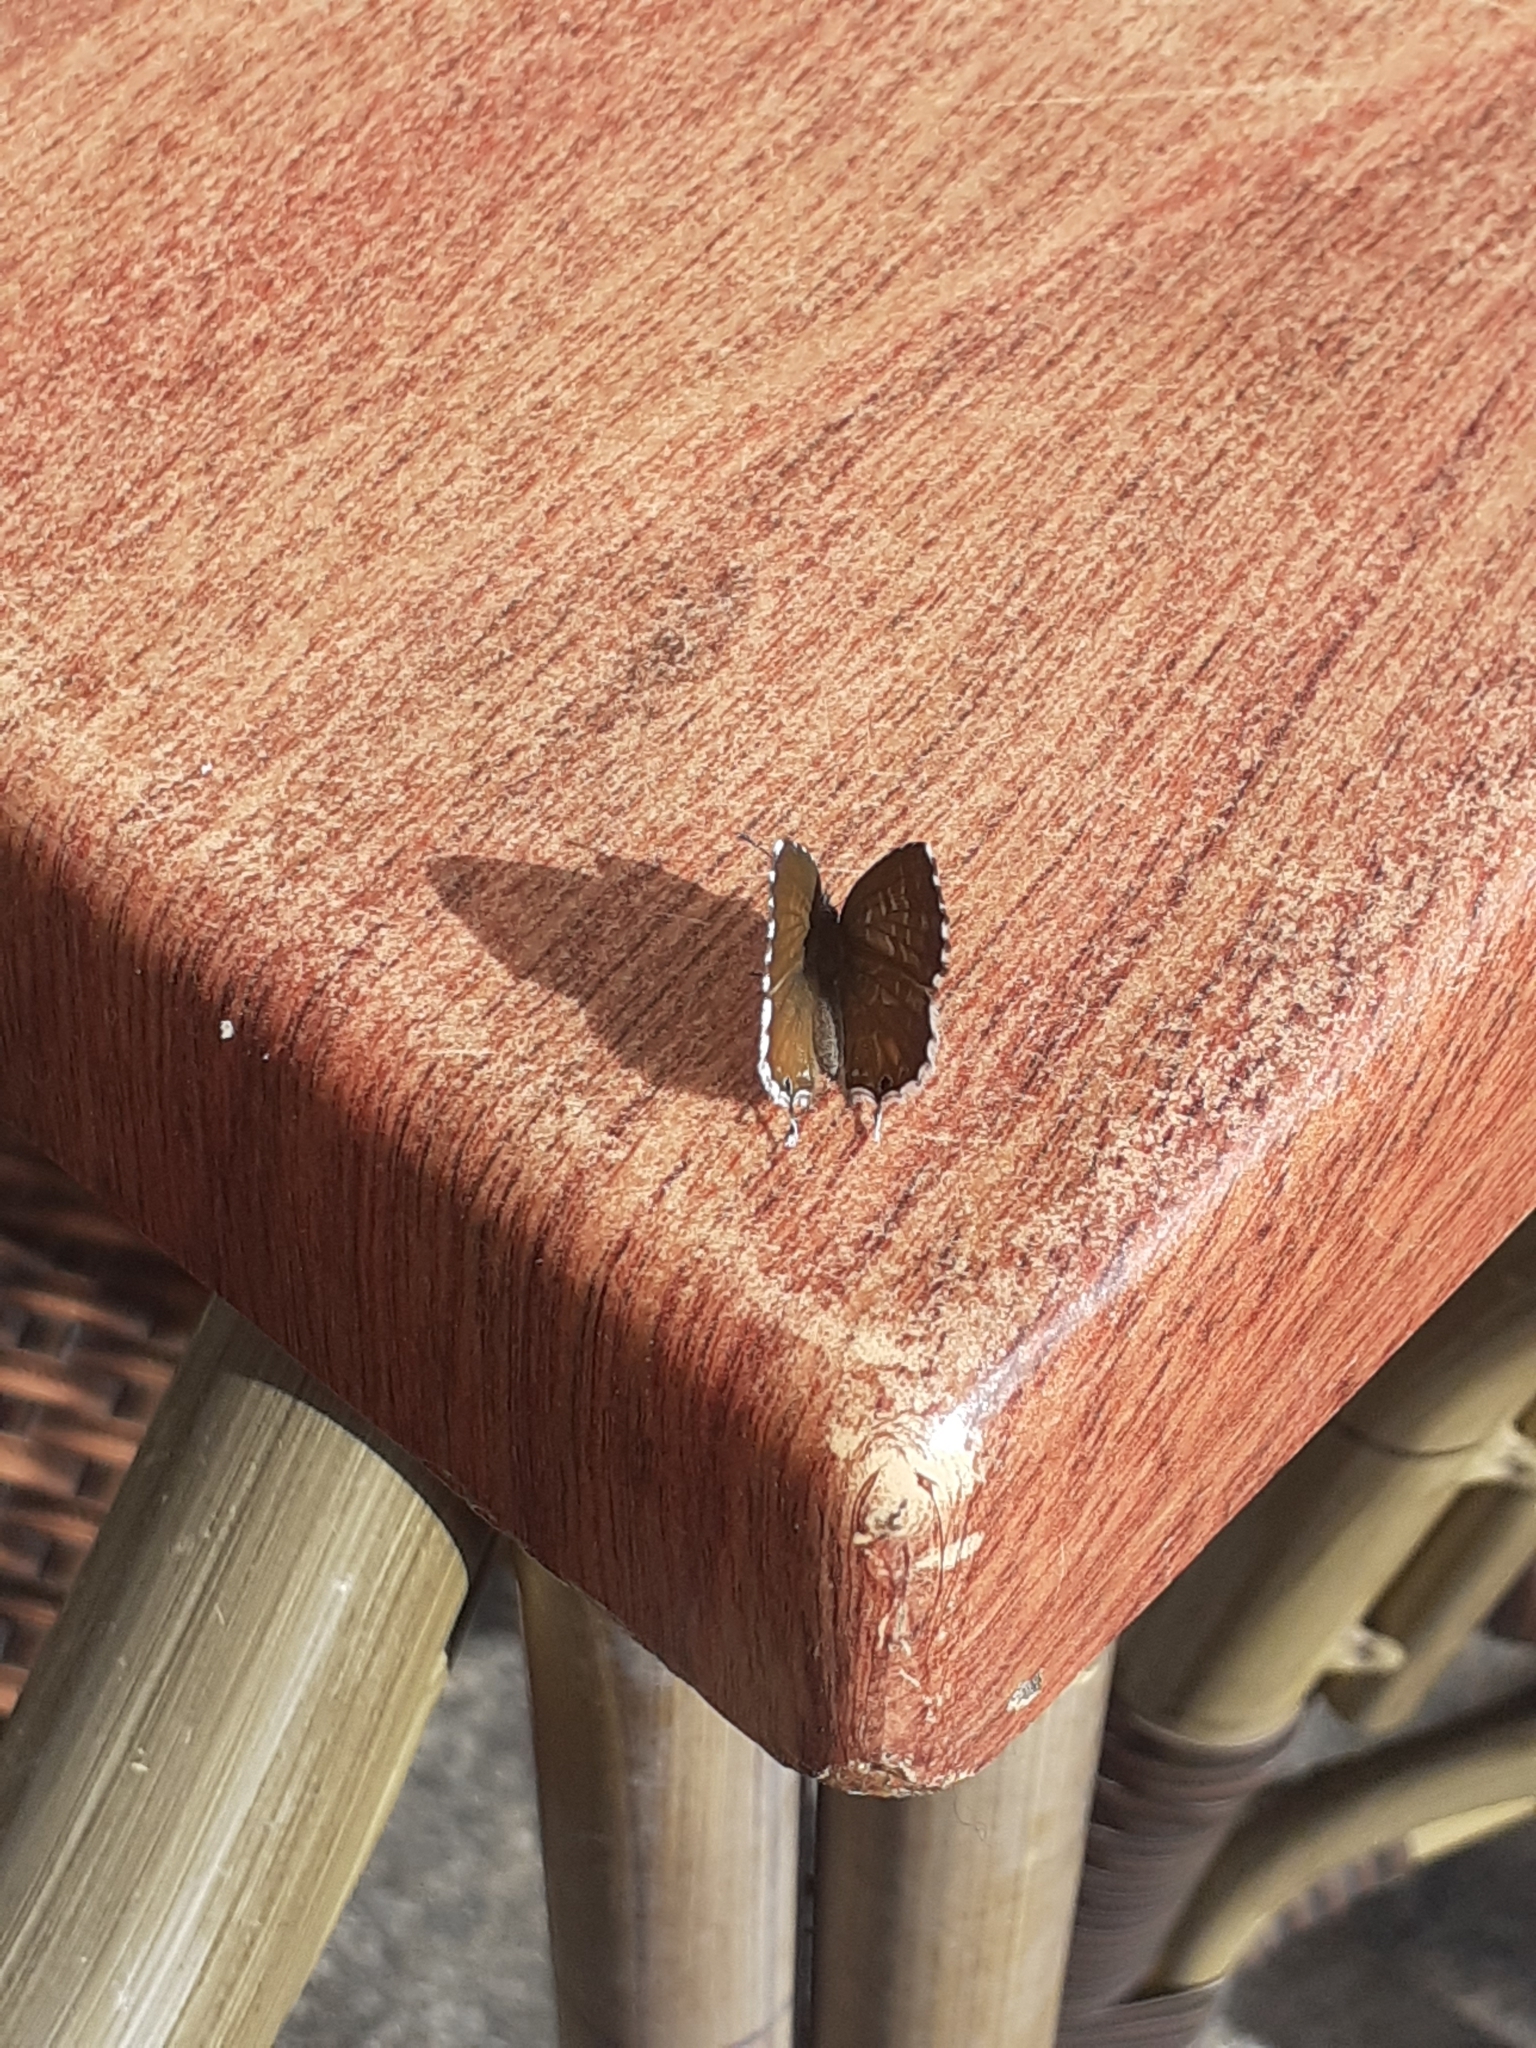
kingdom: Animalia
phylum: Arthropoda
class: Insecta
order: Lepidoptera
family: Lycaenidae
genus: Cacyreus
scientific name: Cacyreus marshalli
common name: Geranium bronze
